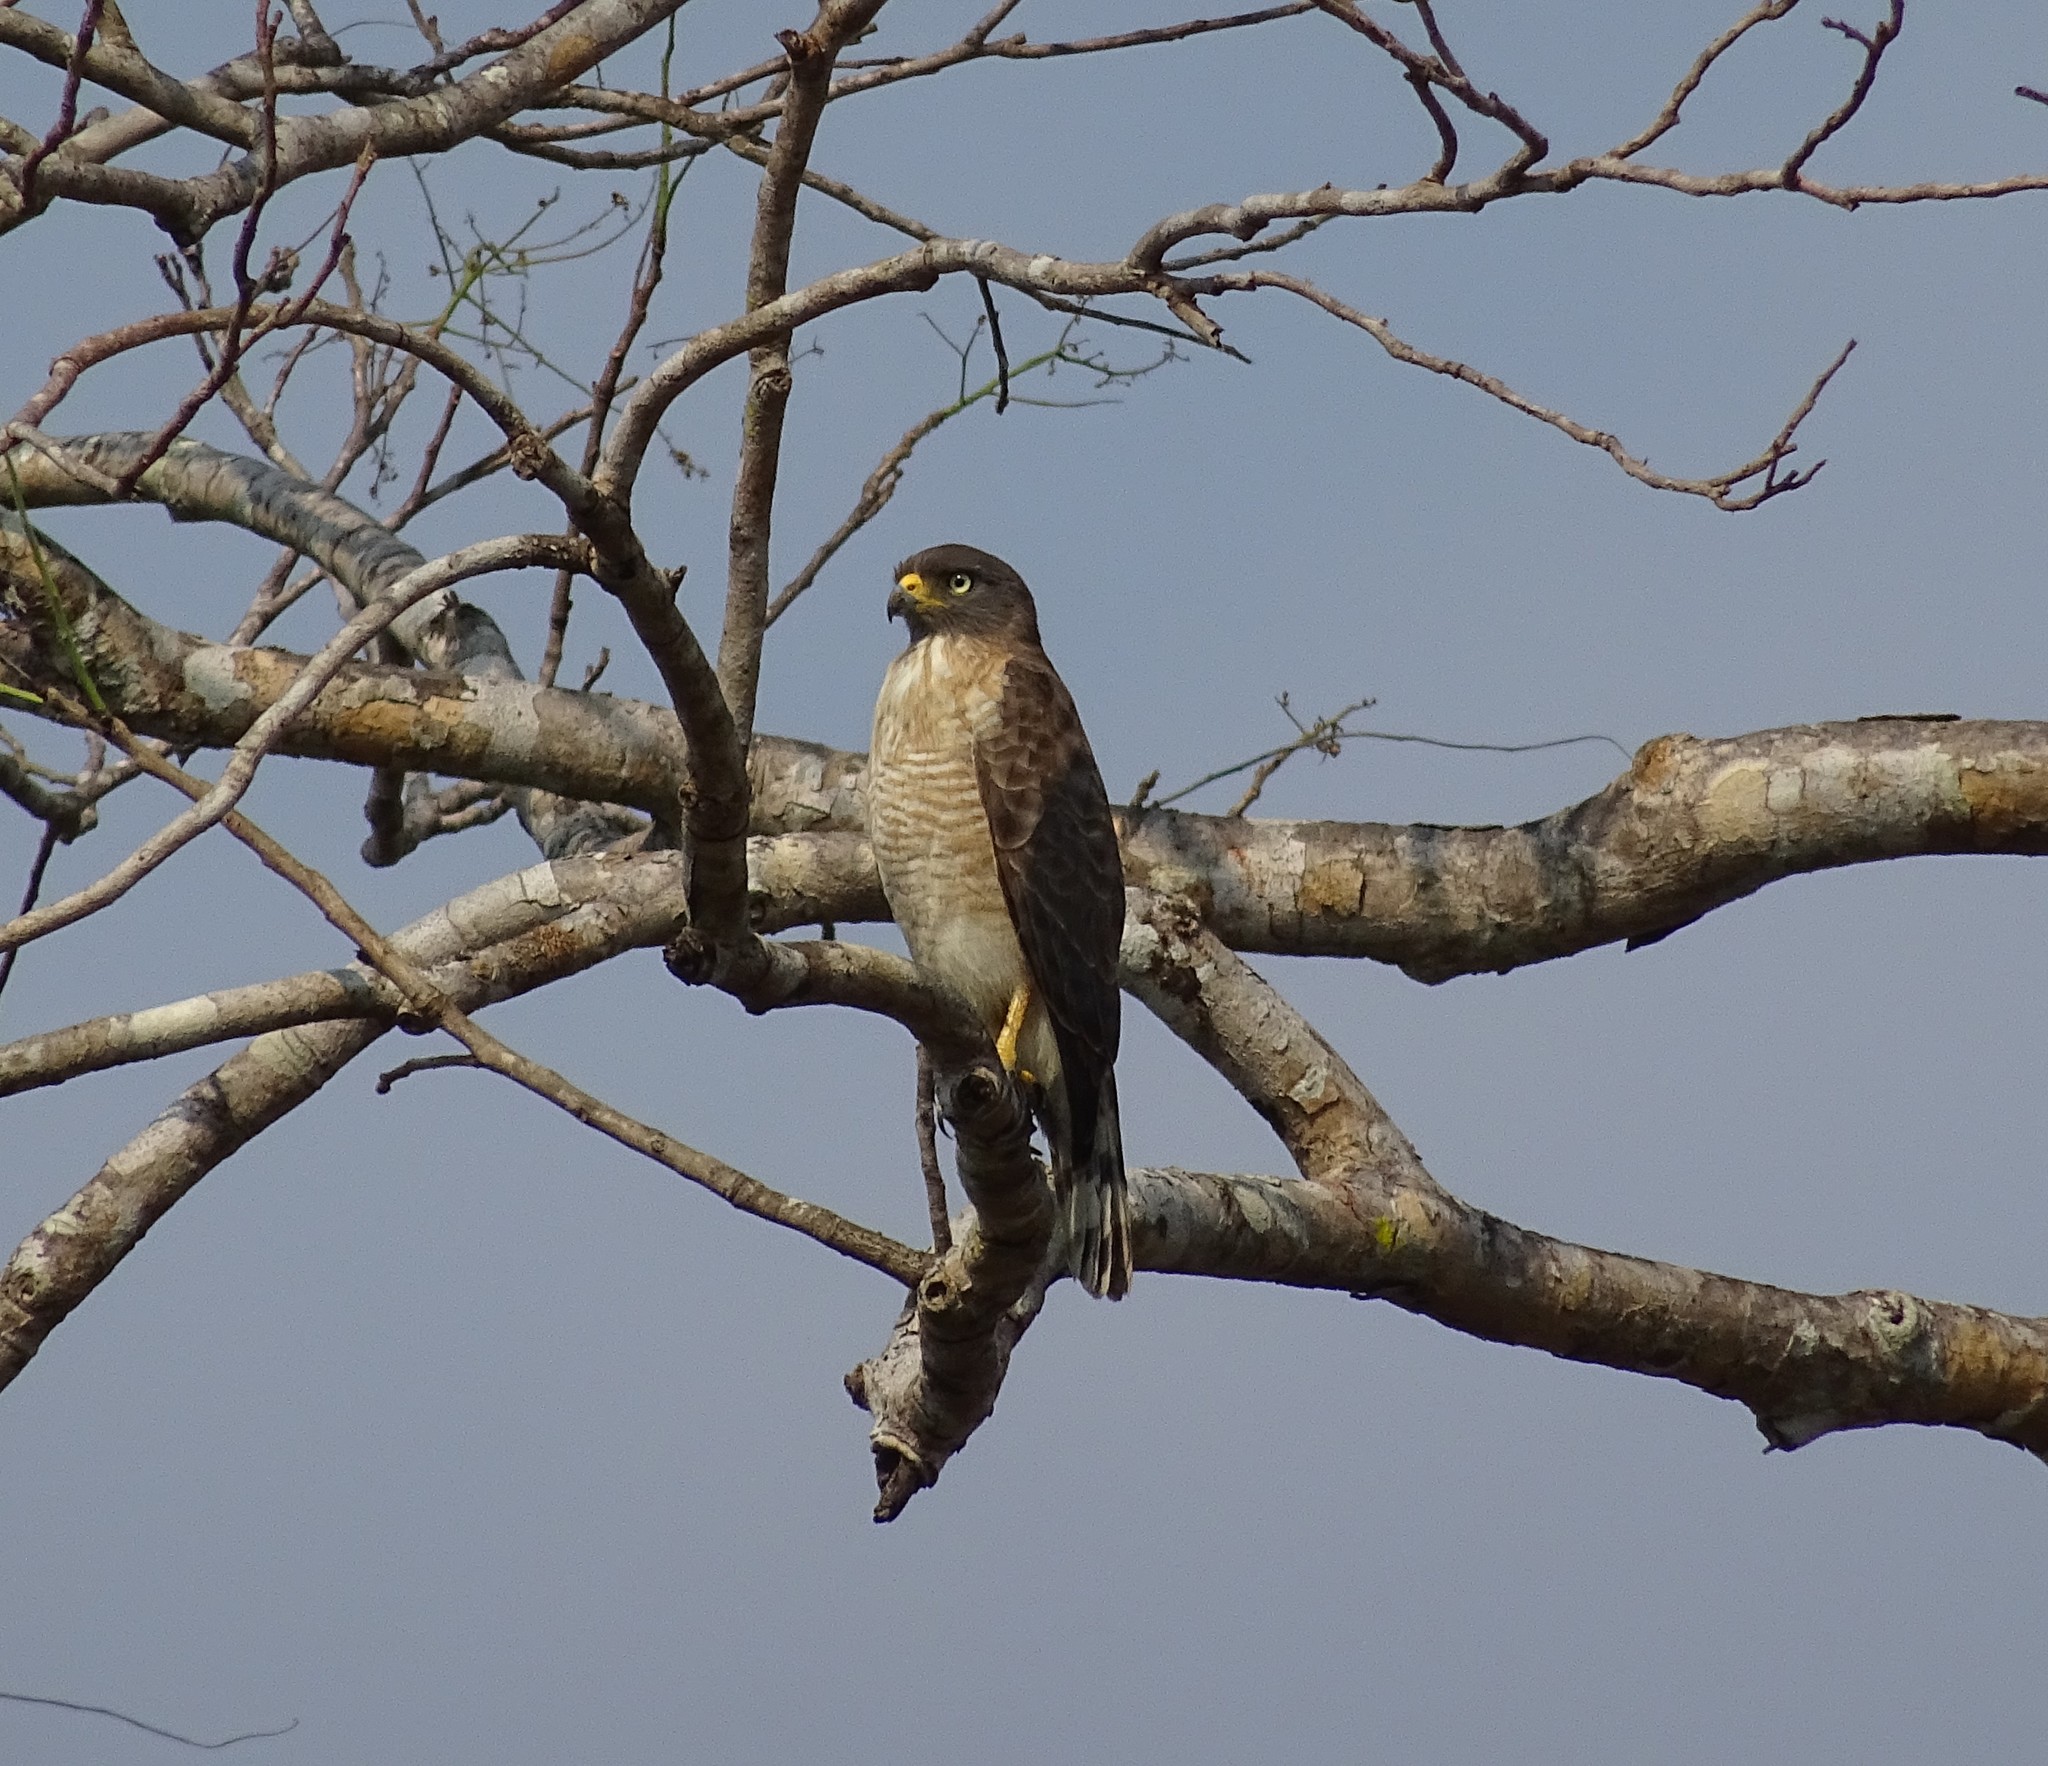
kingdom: Animalia
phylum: Chordata
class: Aves
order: Accipitriformes
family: Accipitridae
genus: Rupornis
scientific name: Rupornis magnirostris
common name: Roadside hawk
